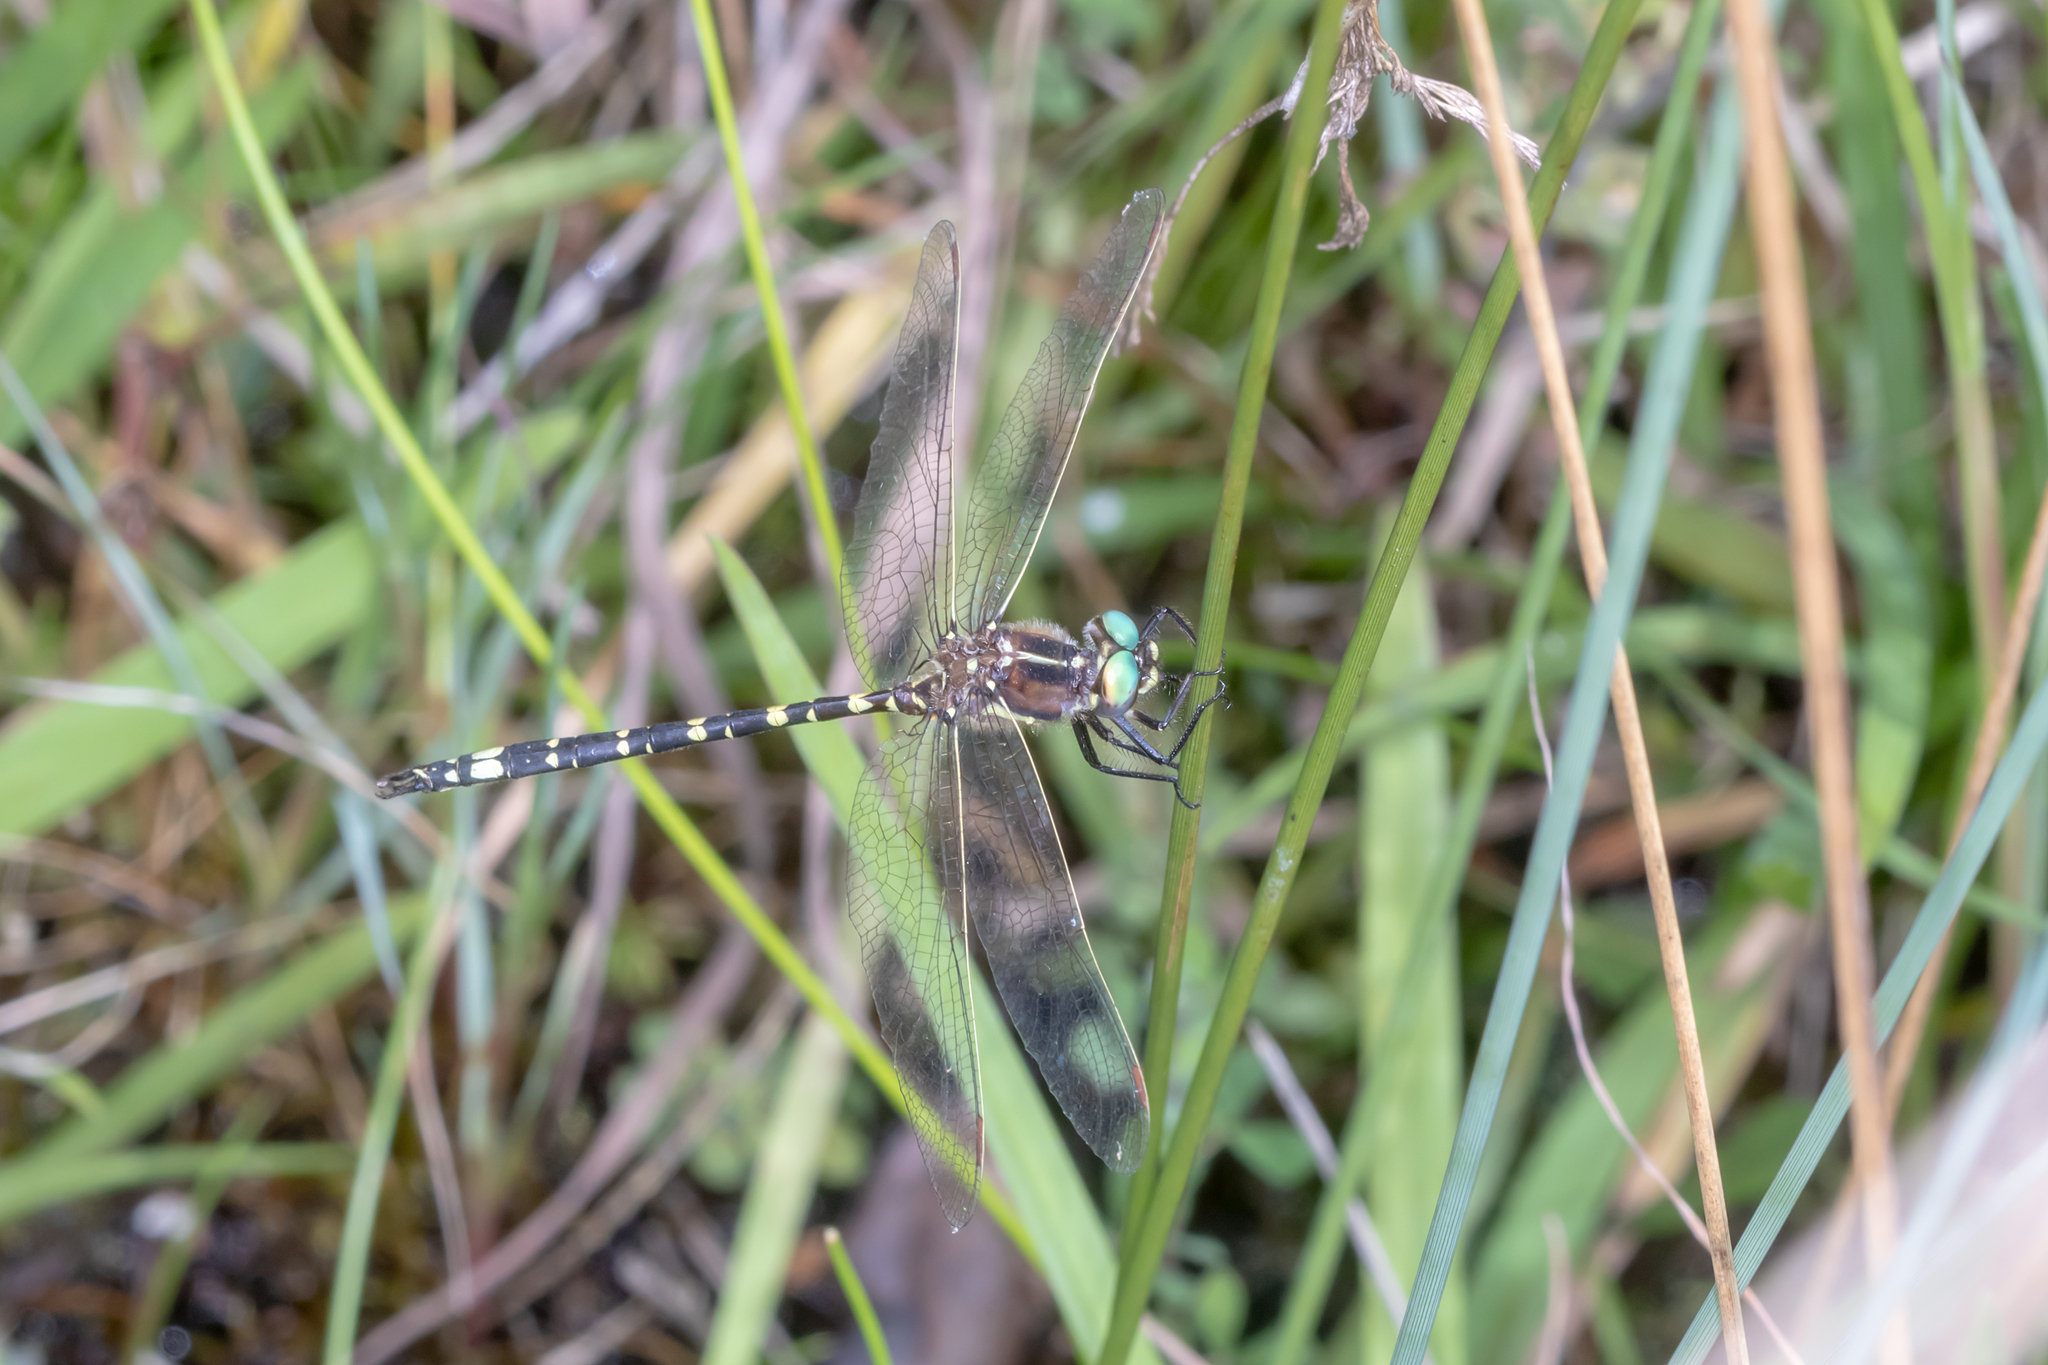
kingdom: Animalia
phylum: Arthropoda
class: Insecta
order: Odonata
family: Synthemistidae
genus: Synthemis
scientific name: Synthemis eustalacta
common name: Swamp tigertail
